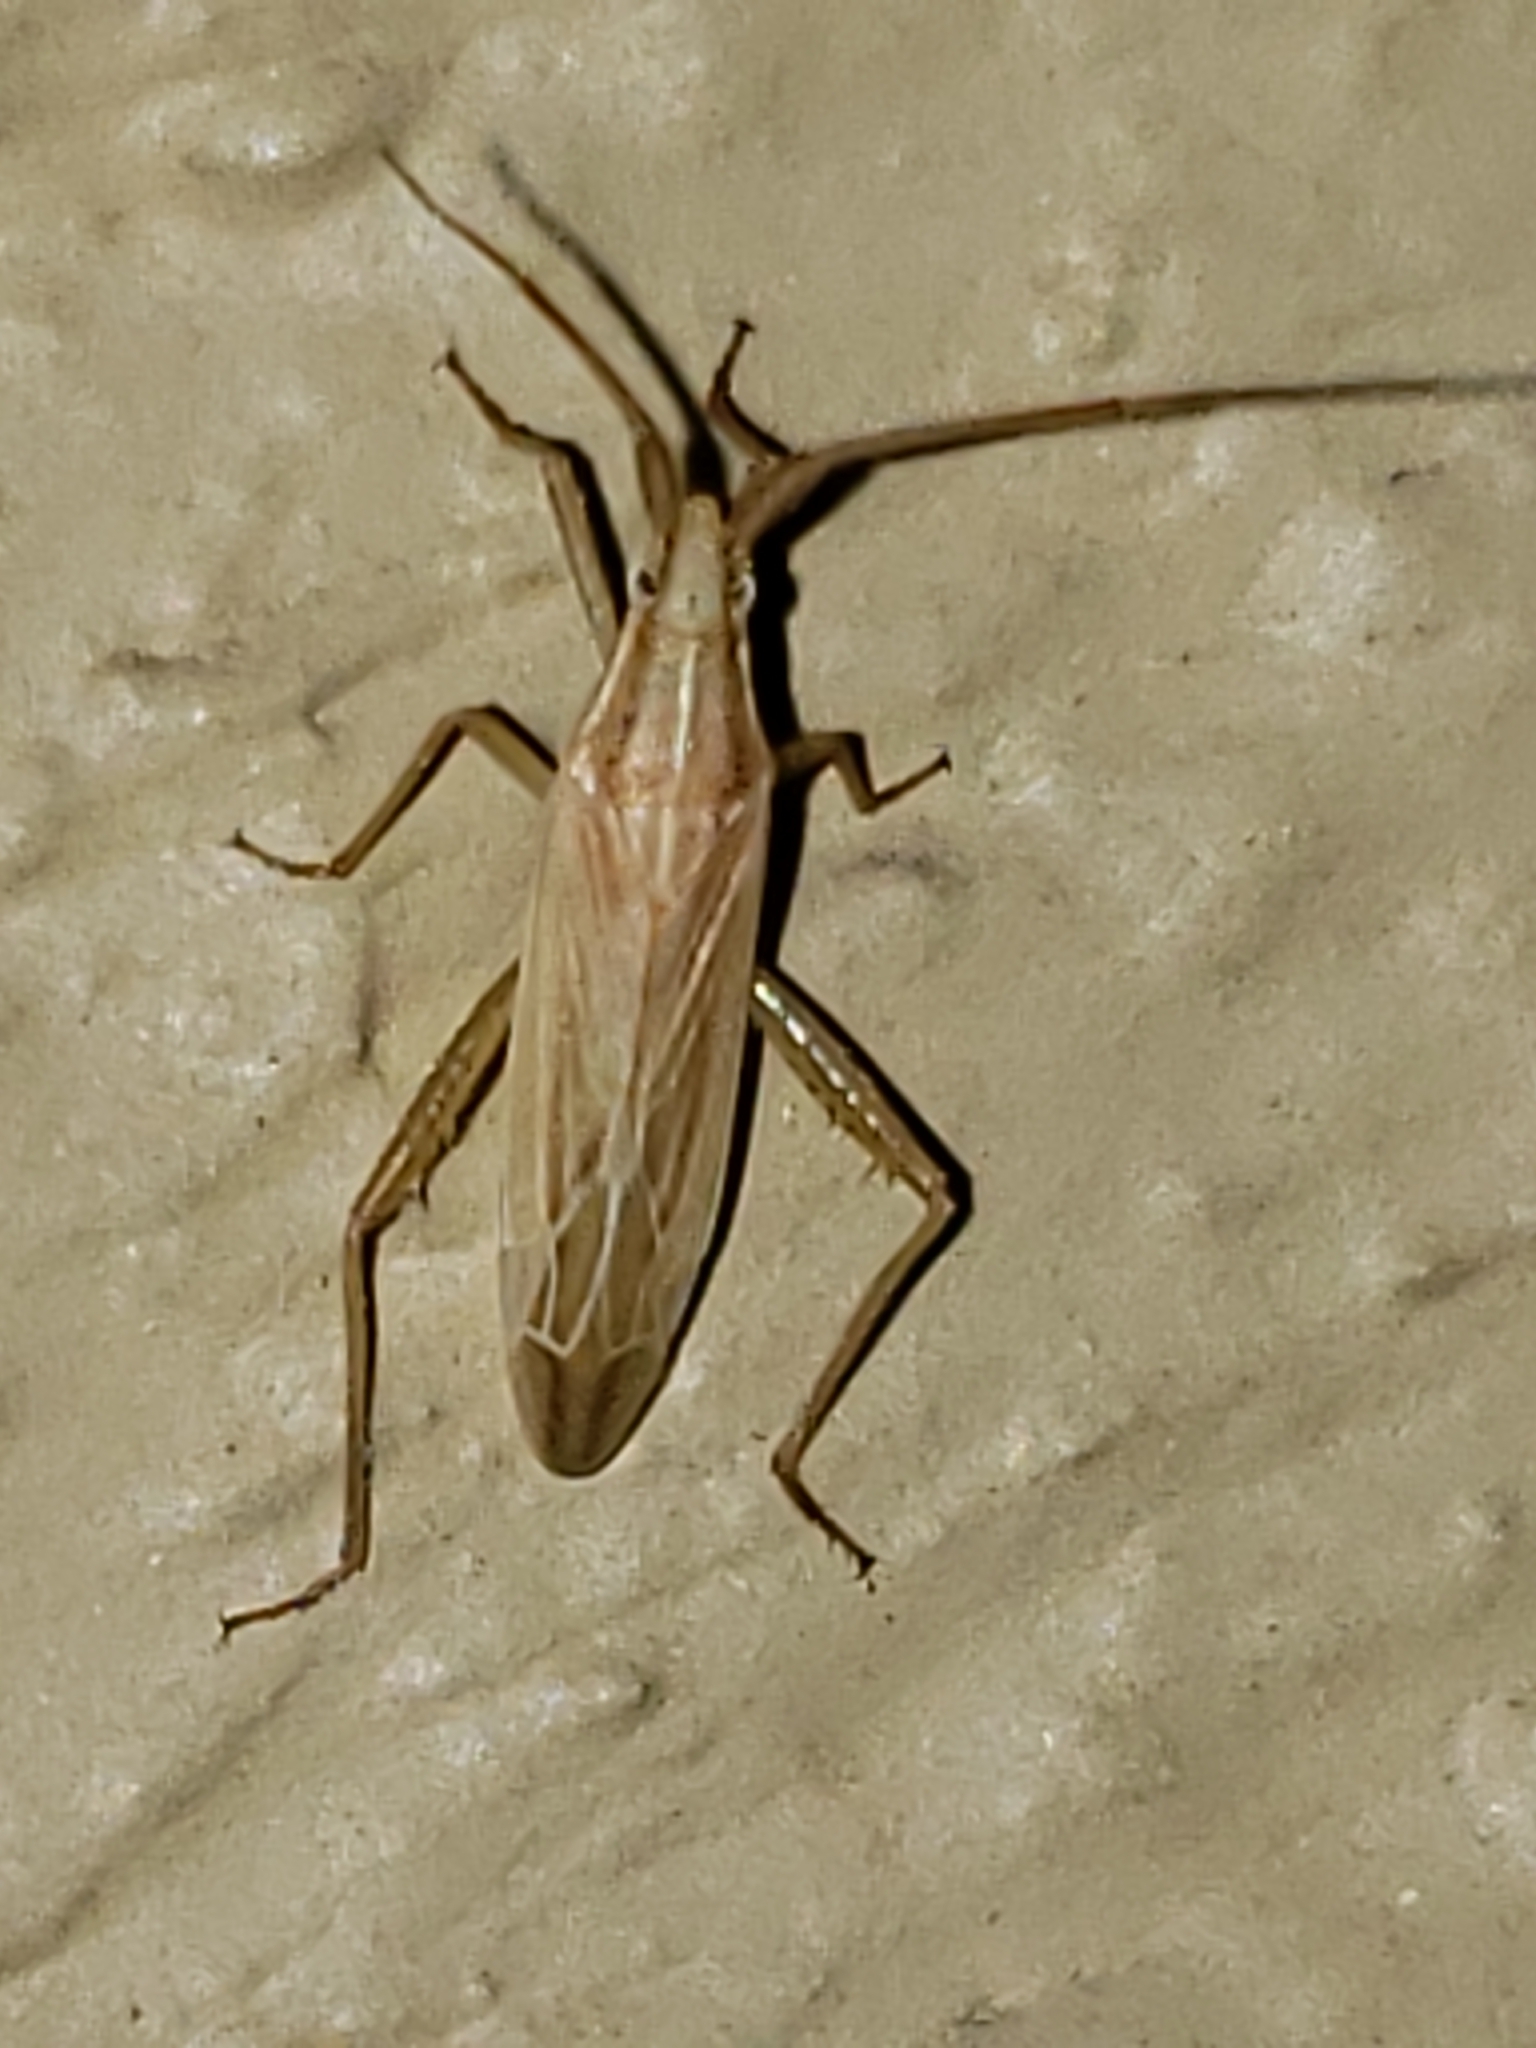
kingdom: Animalia
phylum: Arthropoda
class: Insecta
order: Hemiptera
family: Miridae
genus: Stenodema
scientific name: Stenodema trispinosa
